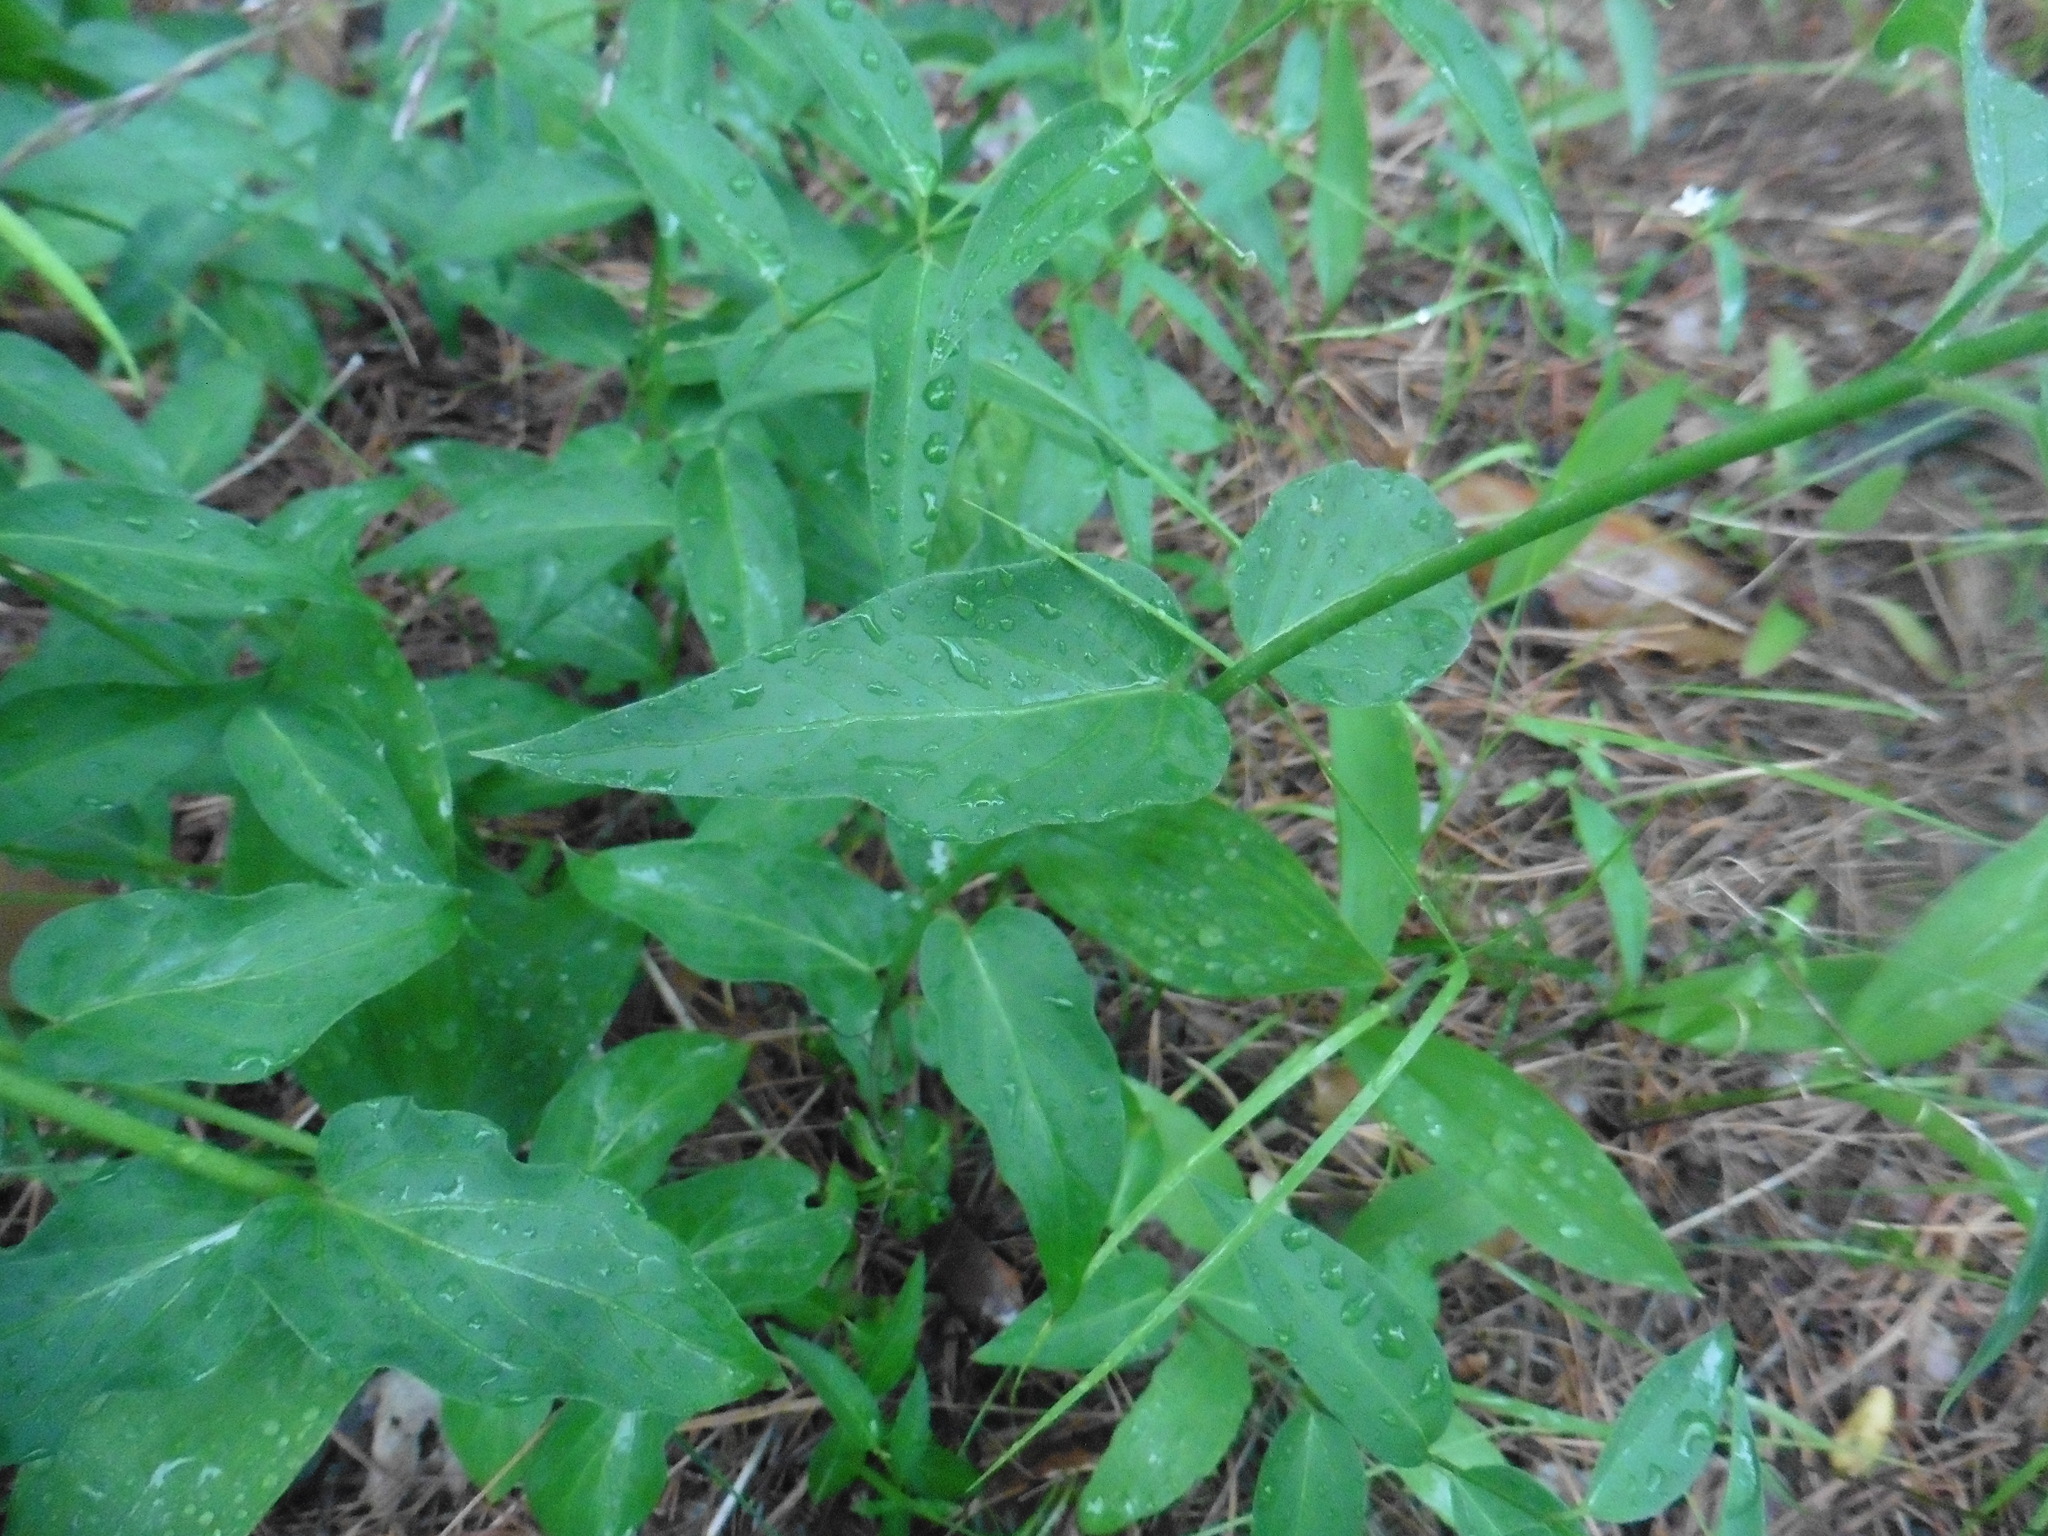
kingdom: Plantae
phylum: Tracheophyta
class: Magnoliopsida
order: Gentianales
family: Apocynaceae
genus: Vincetoxicum
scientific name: Vincetoxicum hirundinaria
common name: White swallowwort
